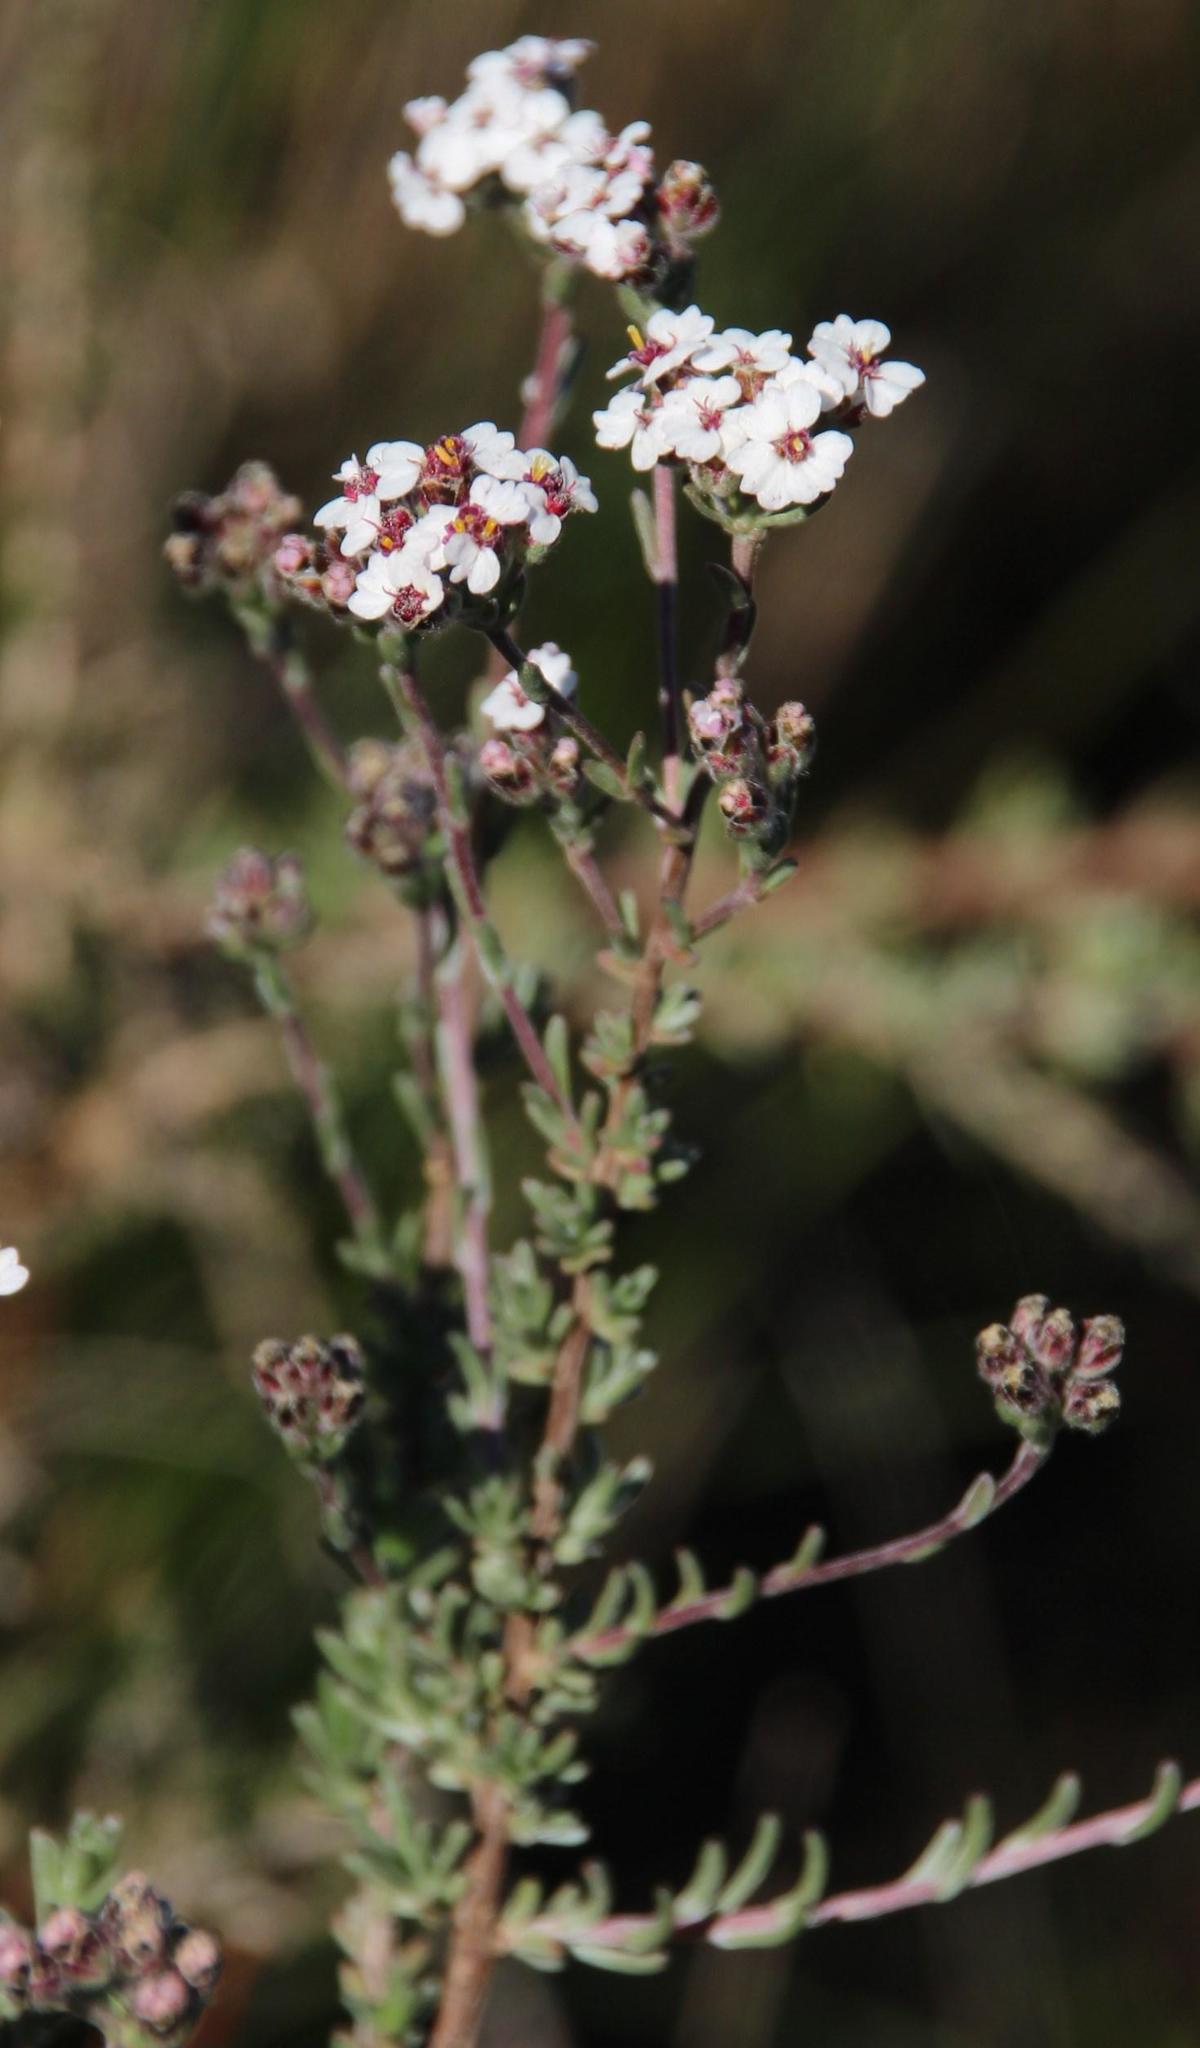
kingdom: Plantae
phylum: Tracheophyta
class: Magnoliopsida
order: Asterales
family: Asteraceae
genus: Eriocephalus
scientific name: Eriocephalus africanus
